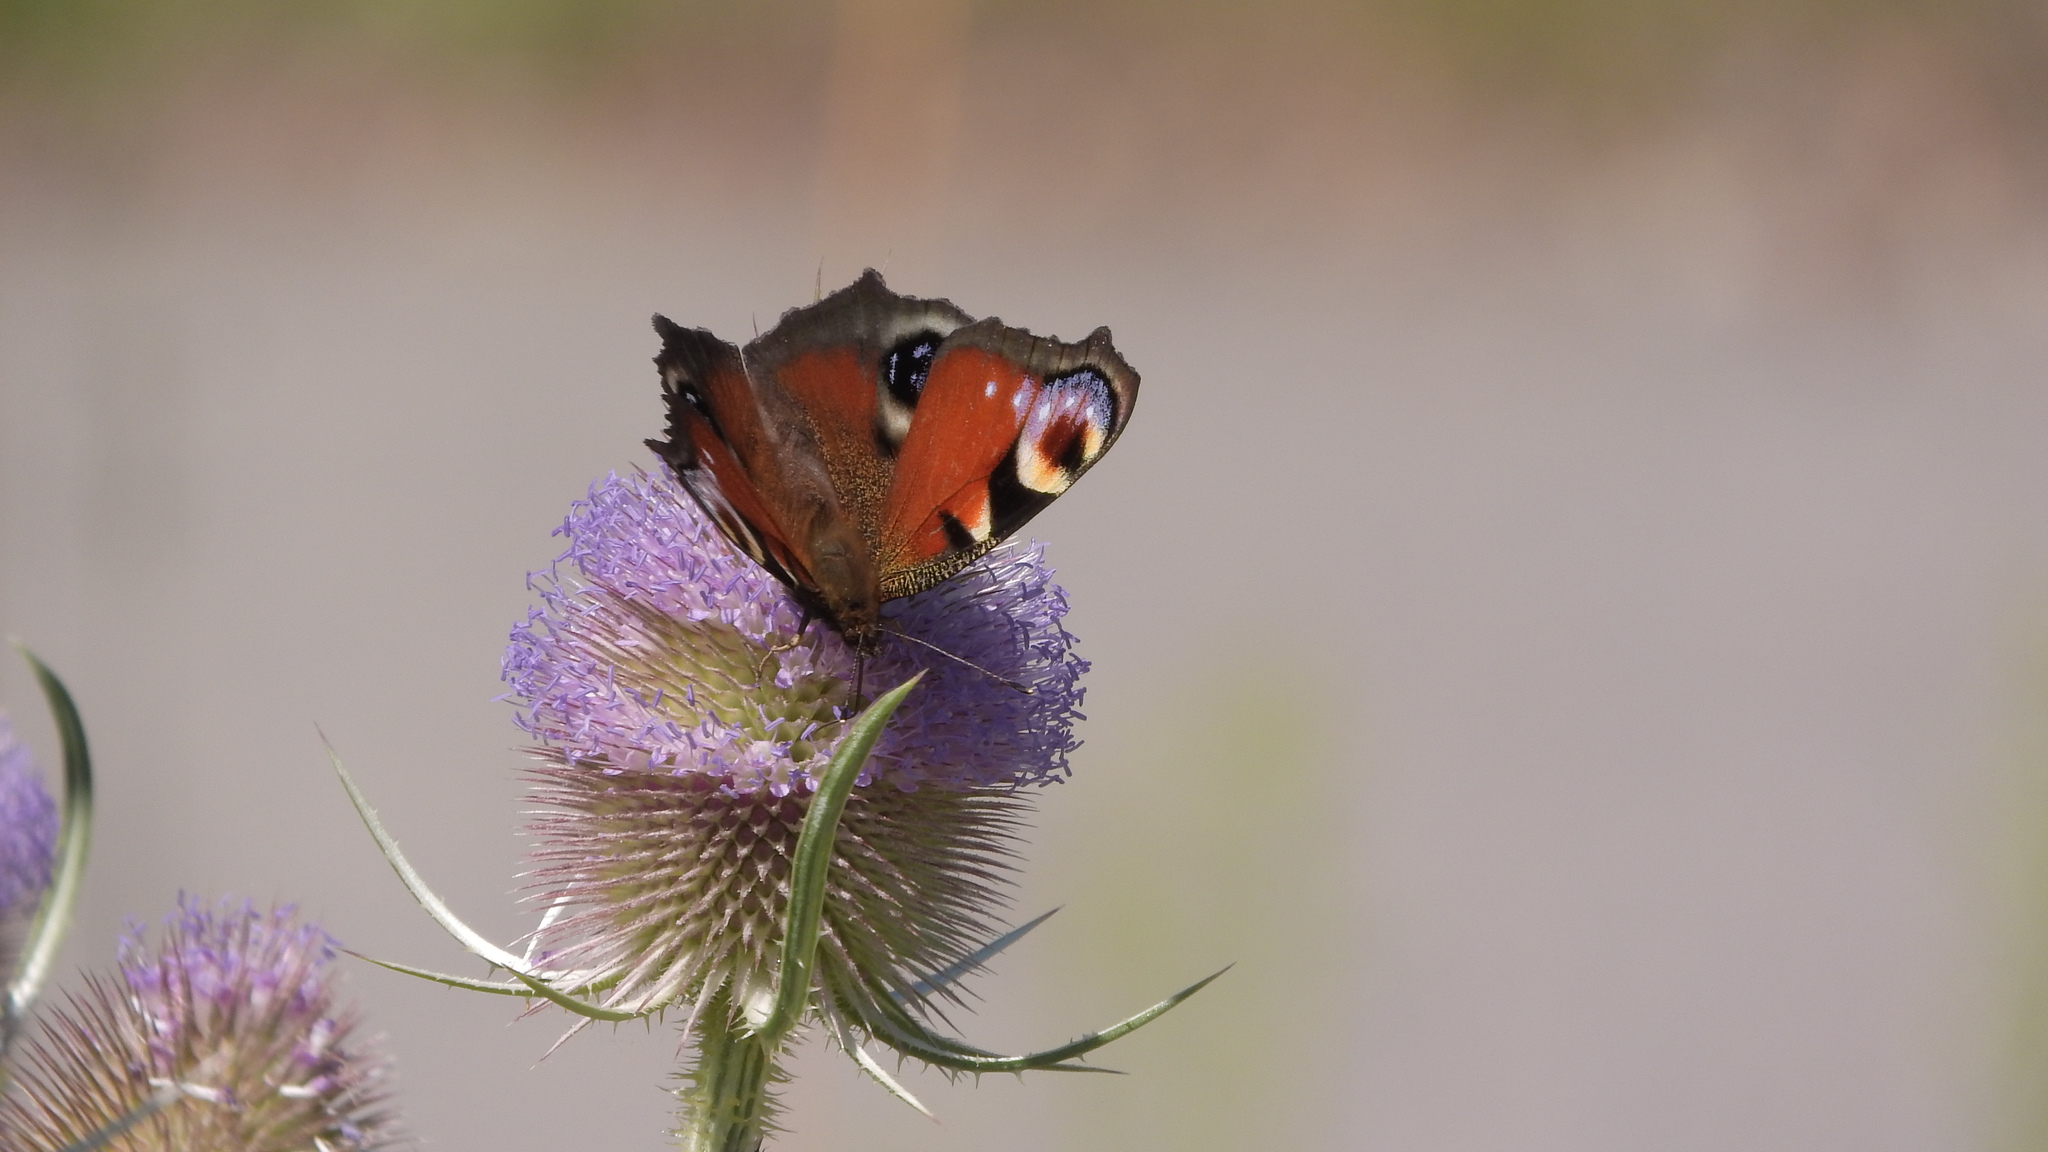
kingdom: Animalia
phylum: Arthropoda
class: Insecta
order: Lepidoptera
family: Nymphalidae
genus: Aglais
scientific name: Aglais io
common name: Peacock
